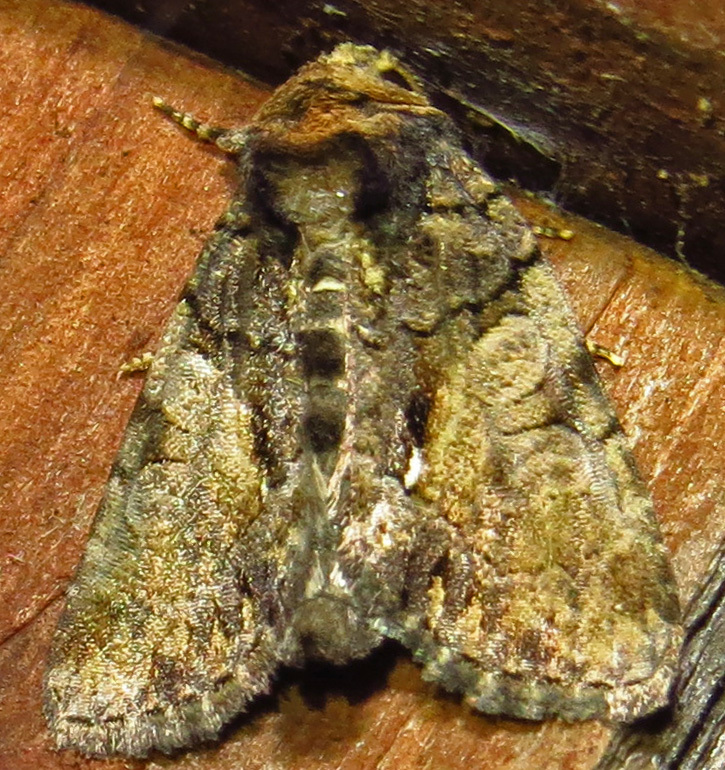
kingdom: Animalia
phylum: Arthropoda
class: Insecta
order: Lepidoptera
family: Noctuidae
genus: Chytonix
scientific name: Chytonix palliatricula
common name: Cloaked marvel
